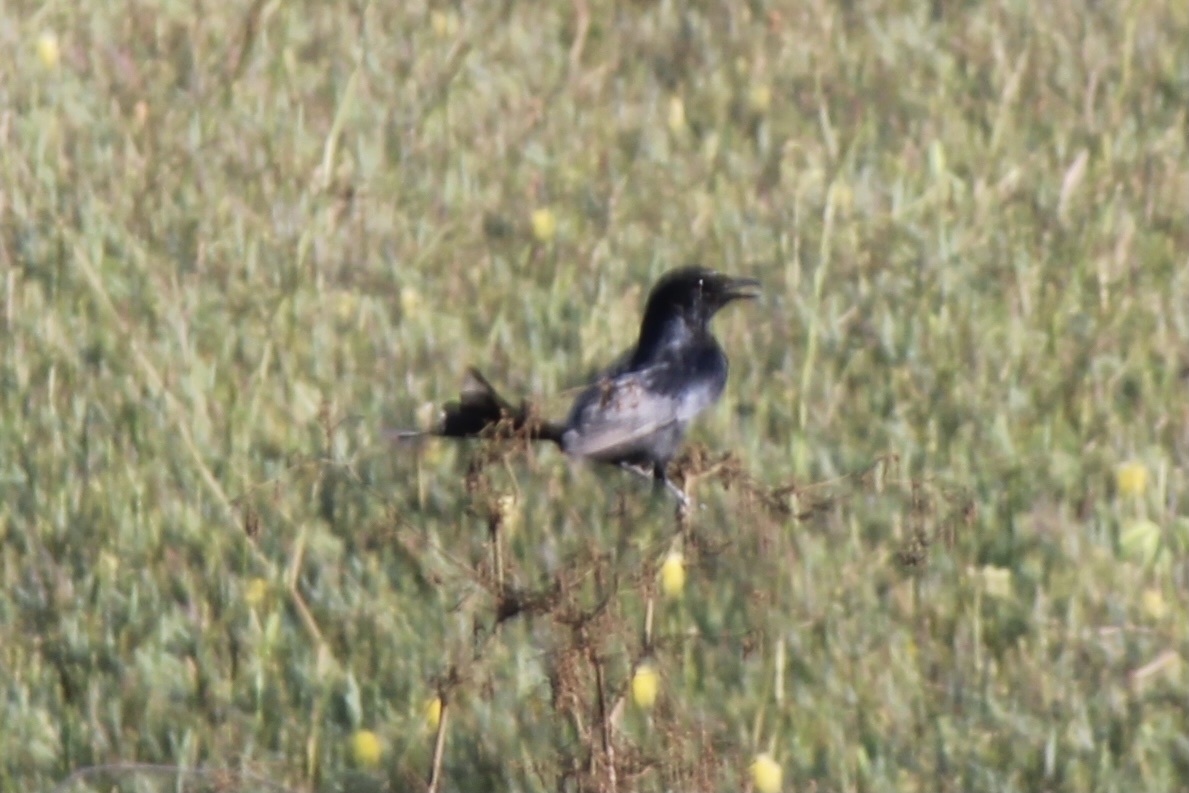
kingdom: Animalia
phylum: Chordata
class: Aves
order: Passeriformes
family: Dicruridae
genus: Dicrurus
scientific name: Dicrurus macrocercus
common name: Black drongo
